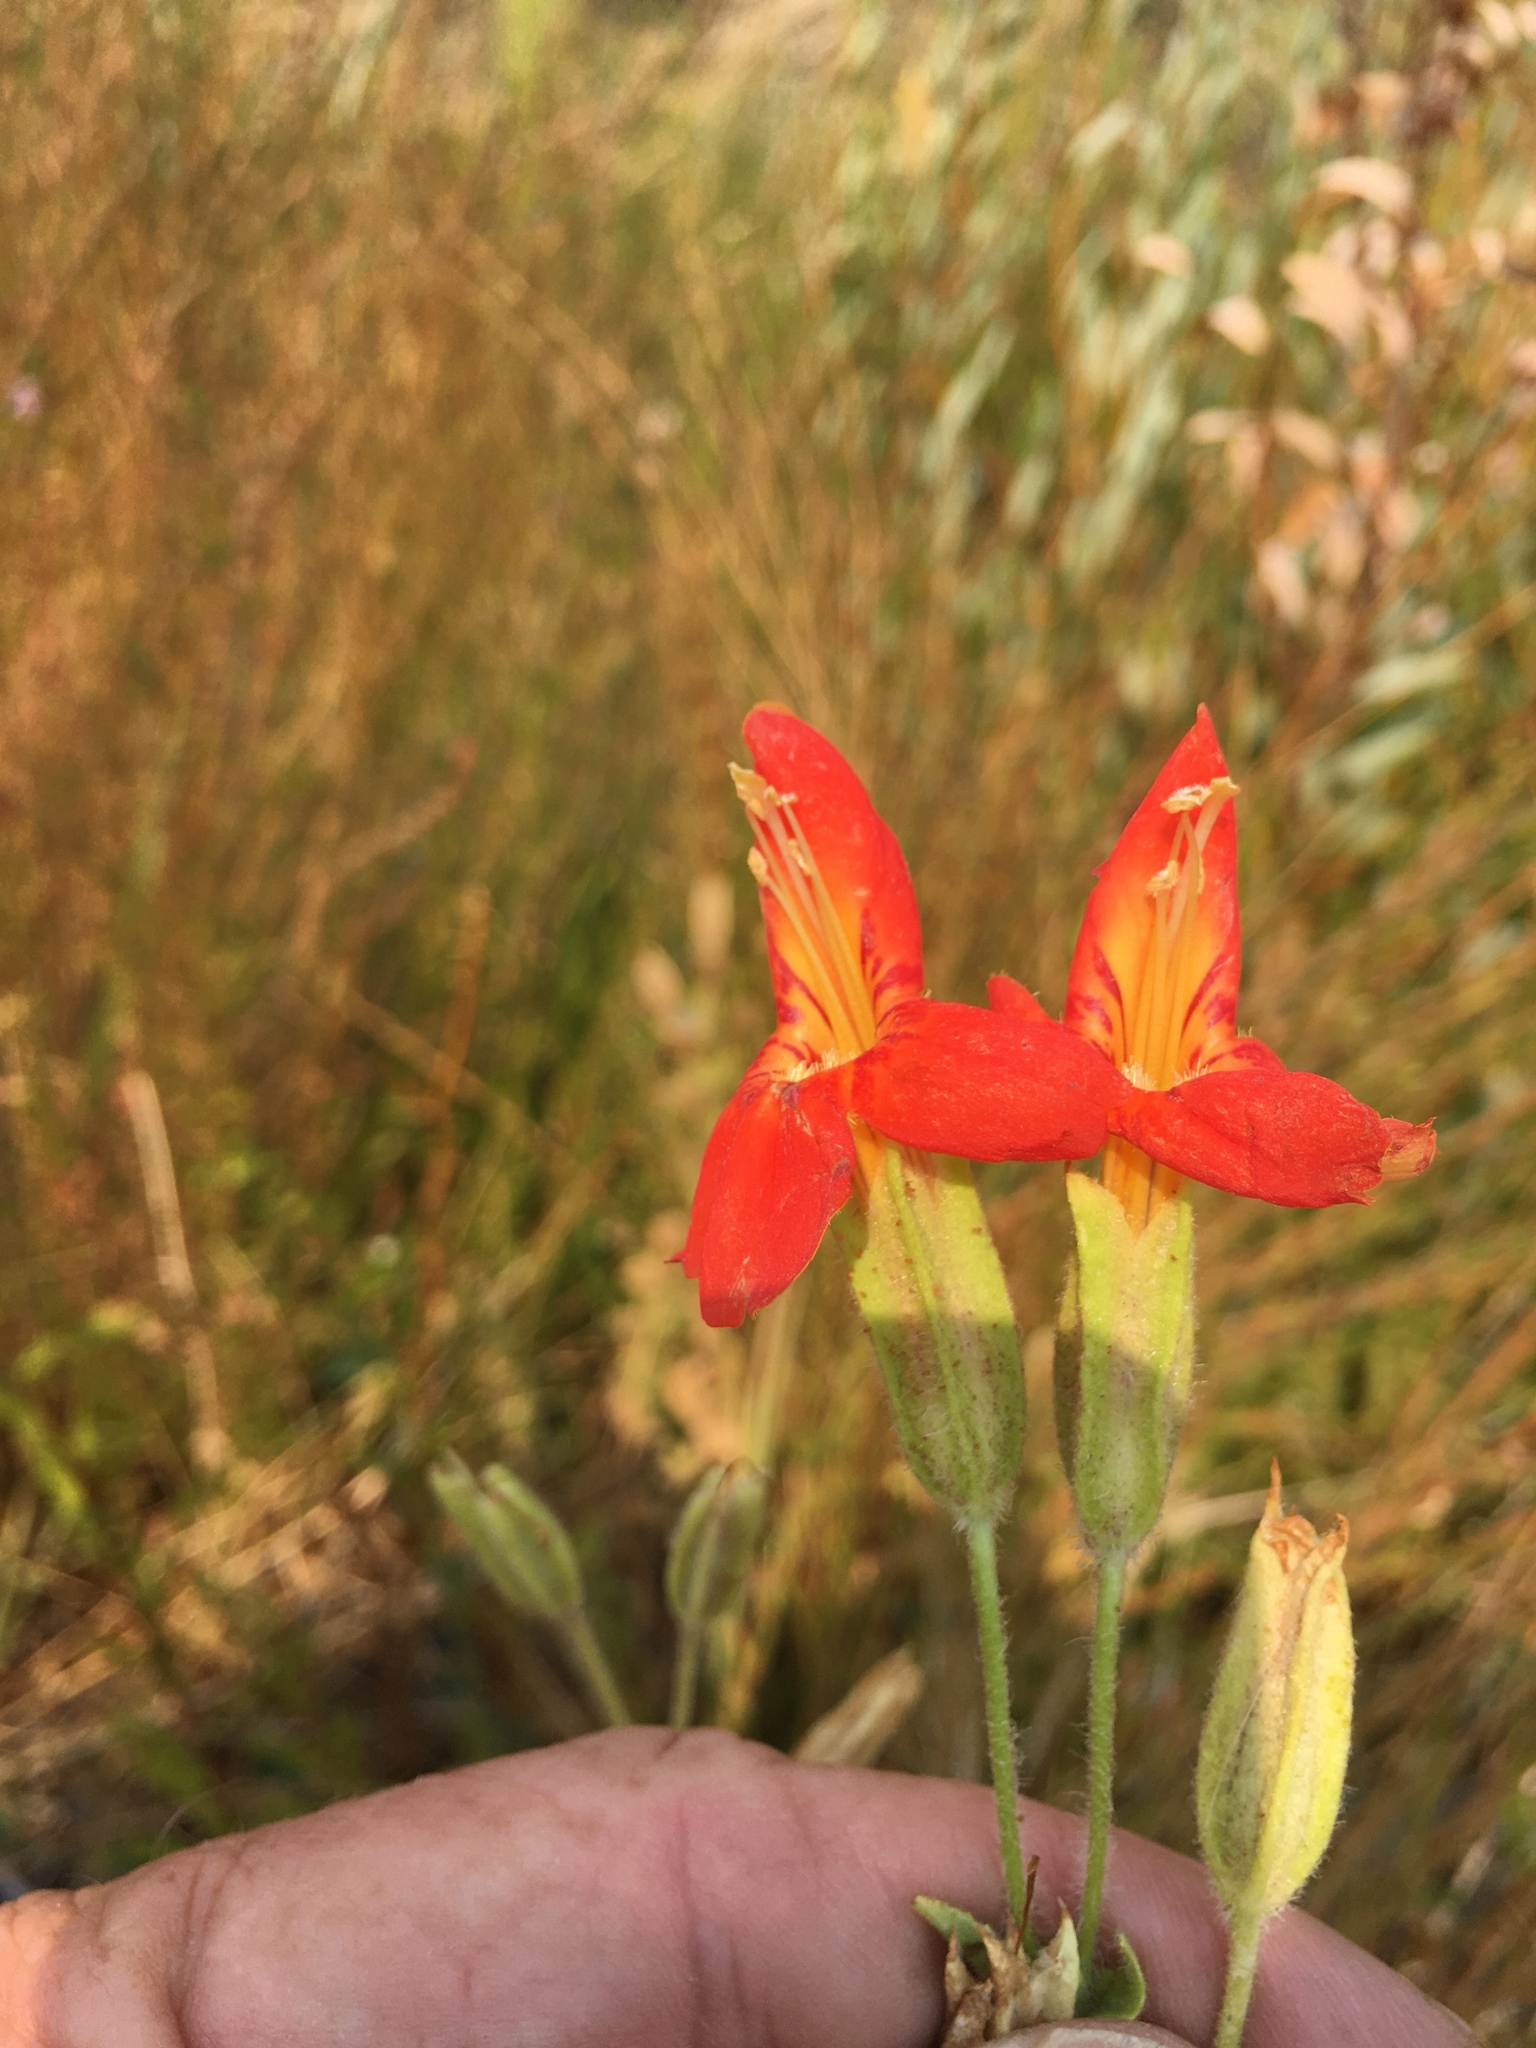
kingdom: Plantae
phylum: Tracheophyta
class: Magnoliopsida
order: Lamiales
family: Phrymaceae
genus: Erythranthe
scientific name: Erythranthe cardinalis
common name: Scarlet monkey-flower
